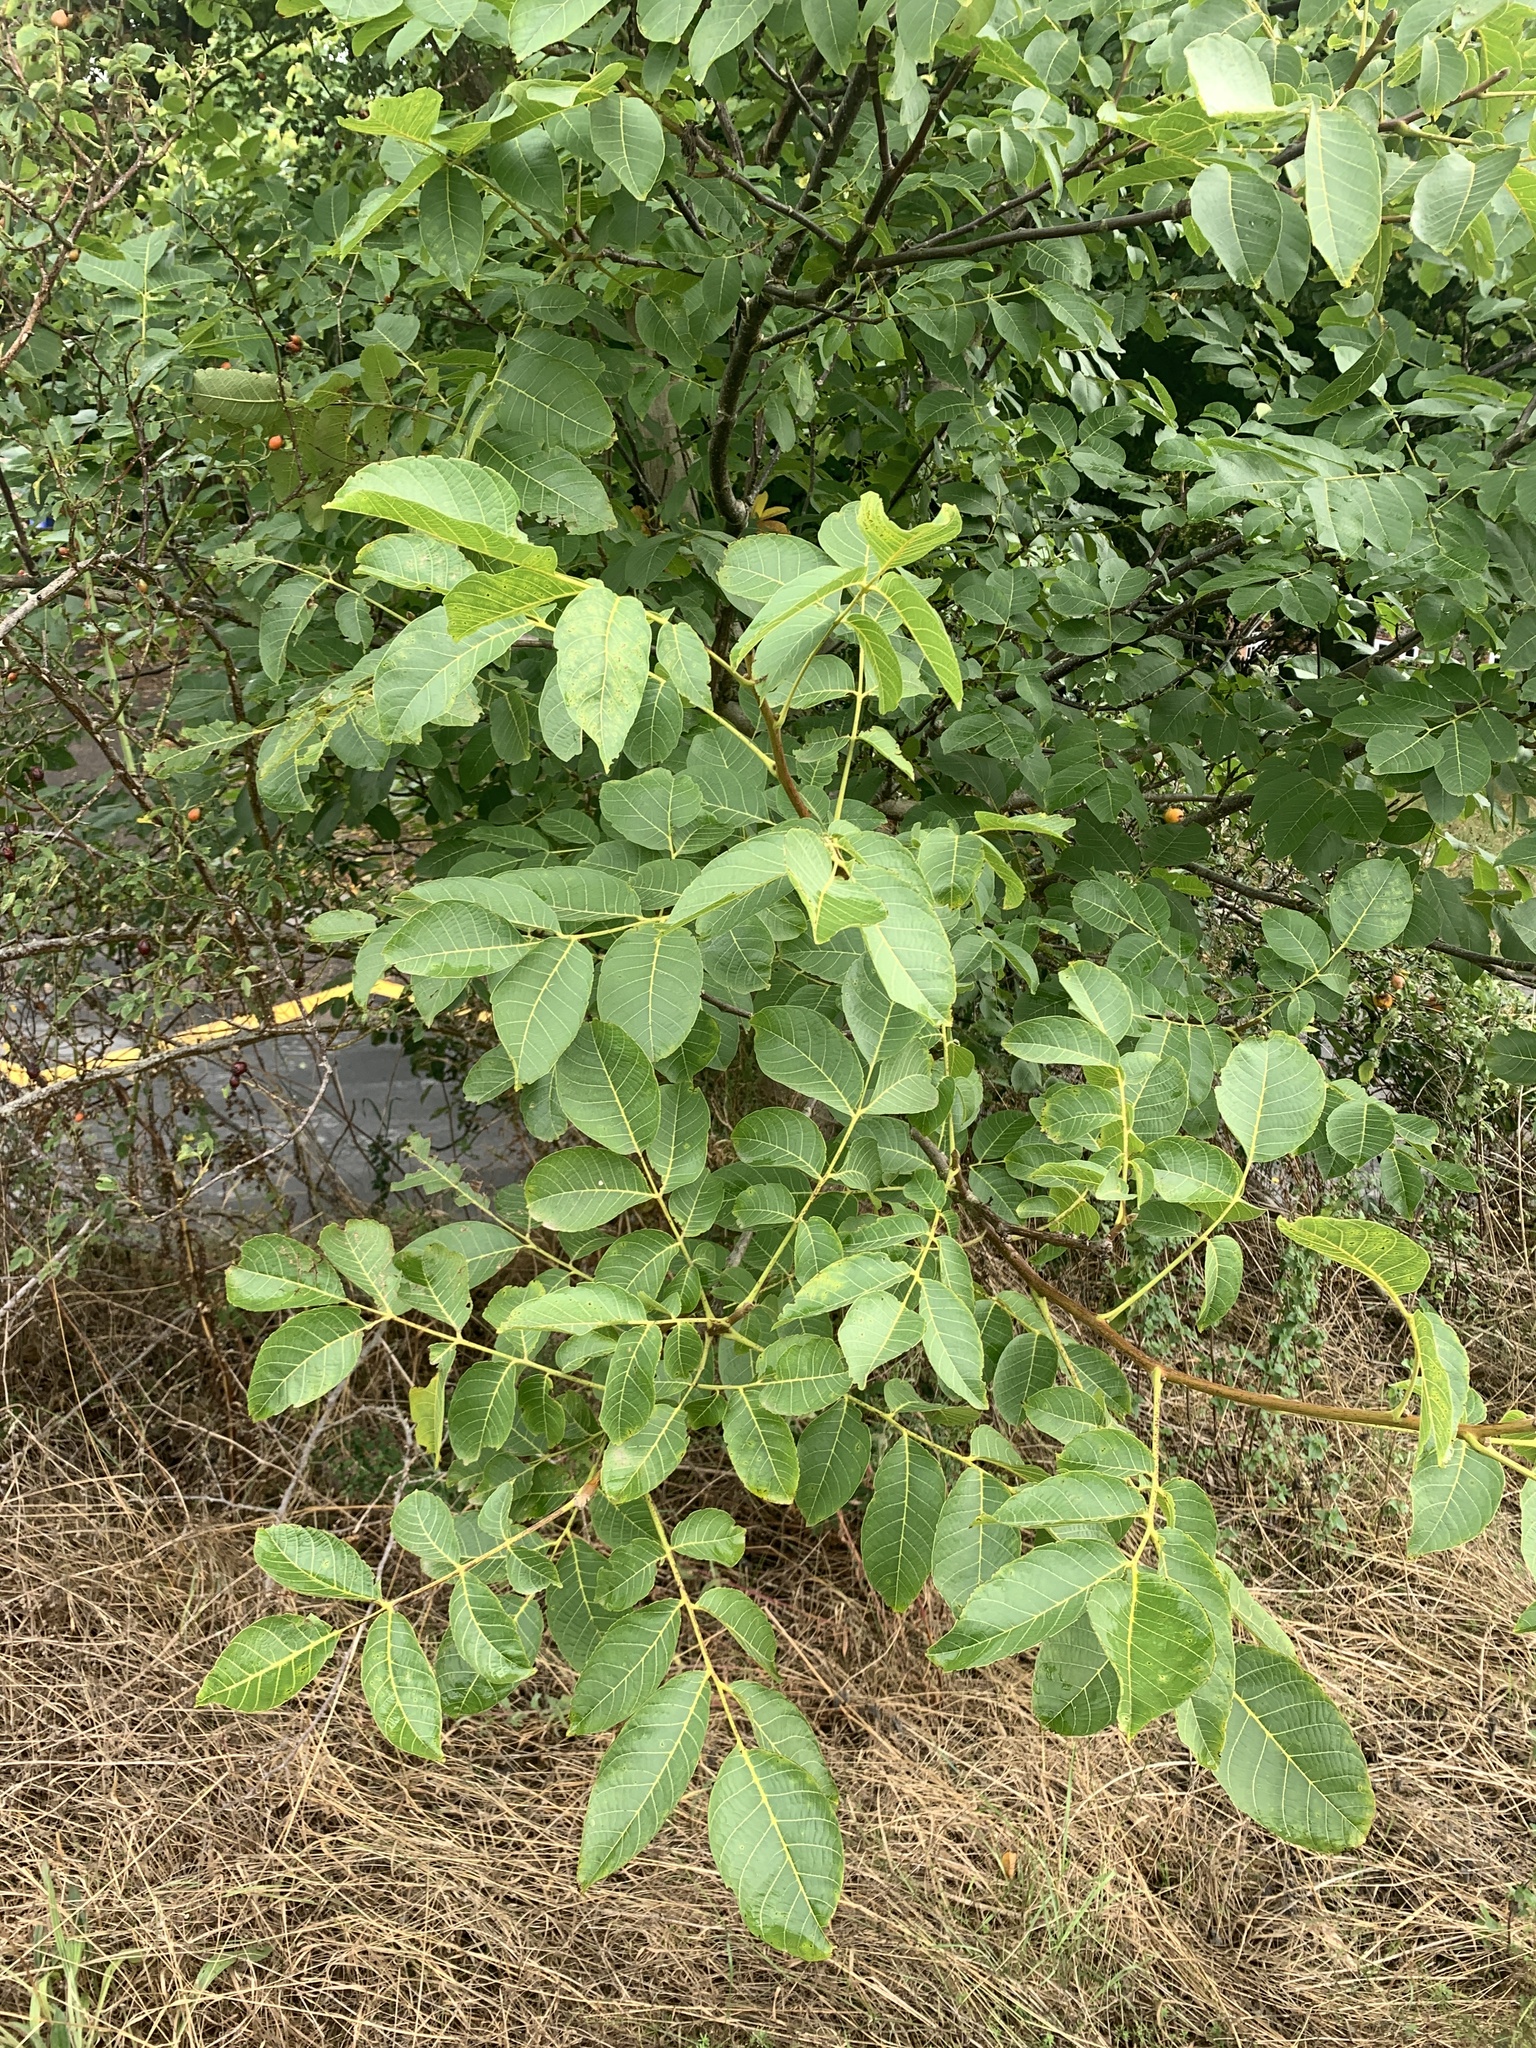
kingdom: Plantae
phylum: Tracheophyta
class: Magnoliopsida
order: Fagales
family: Juglandaceae
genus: Juglans
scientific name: Juglans regia
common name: Walnut
